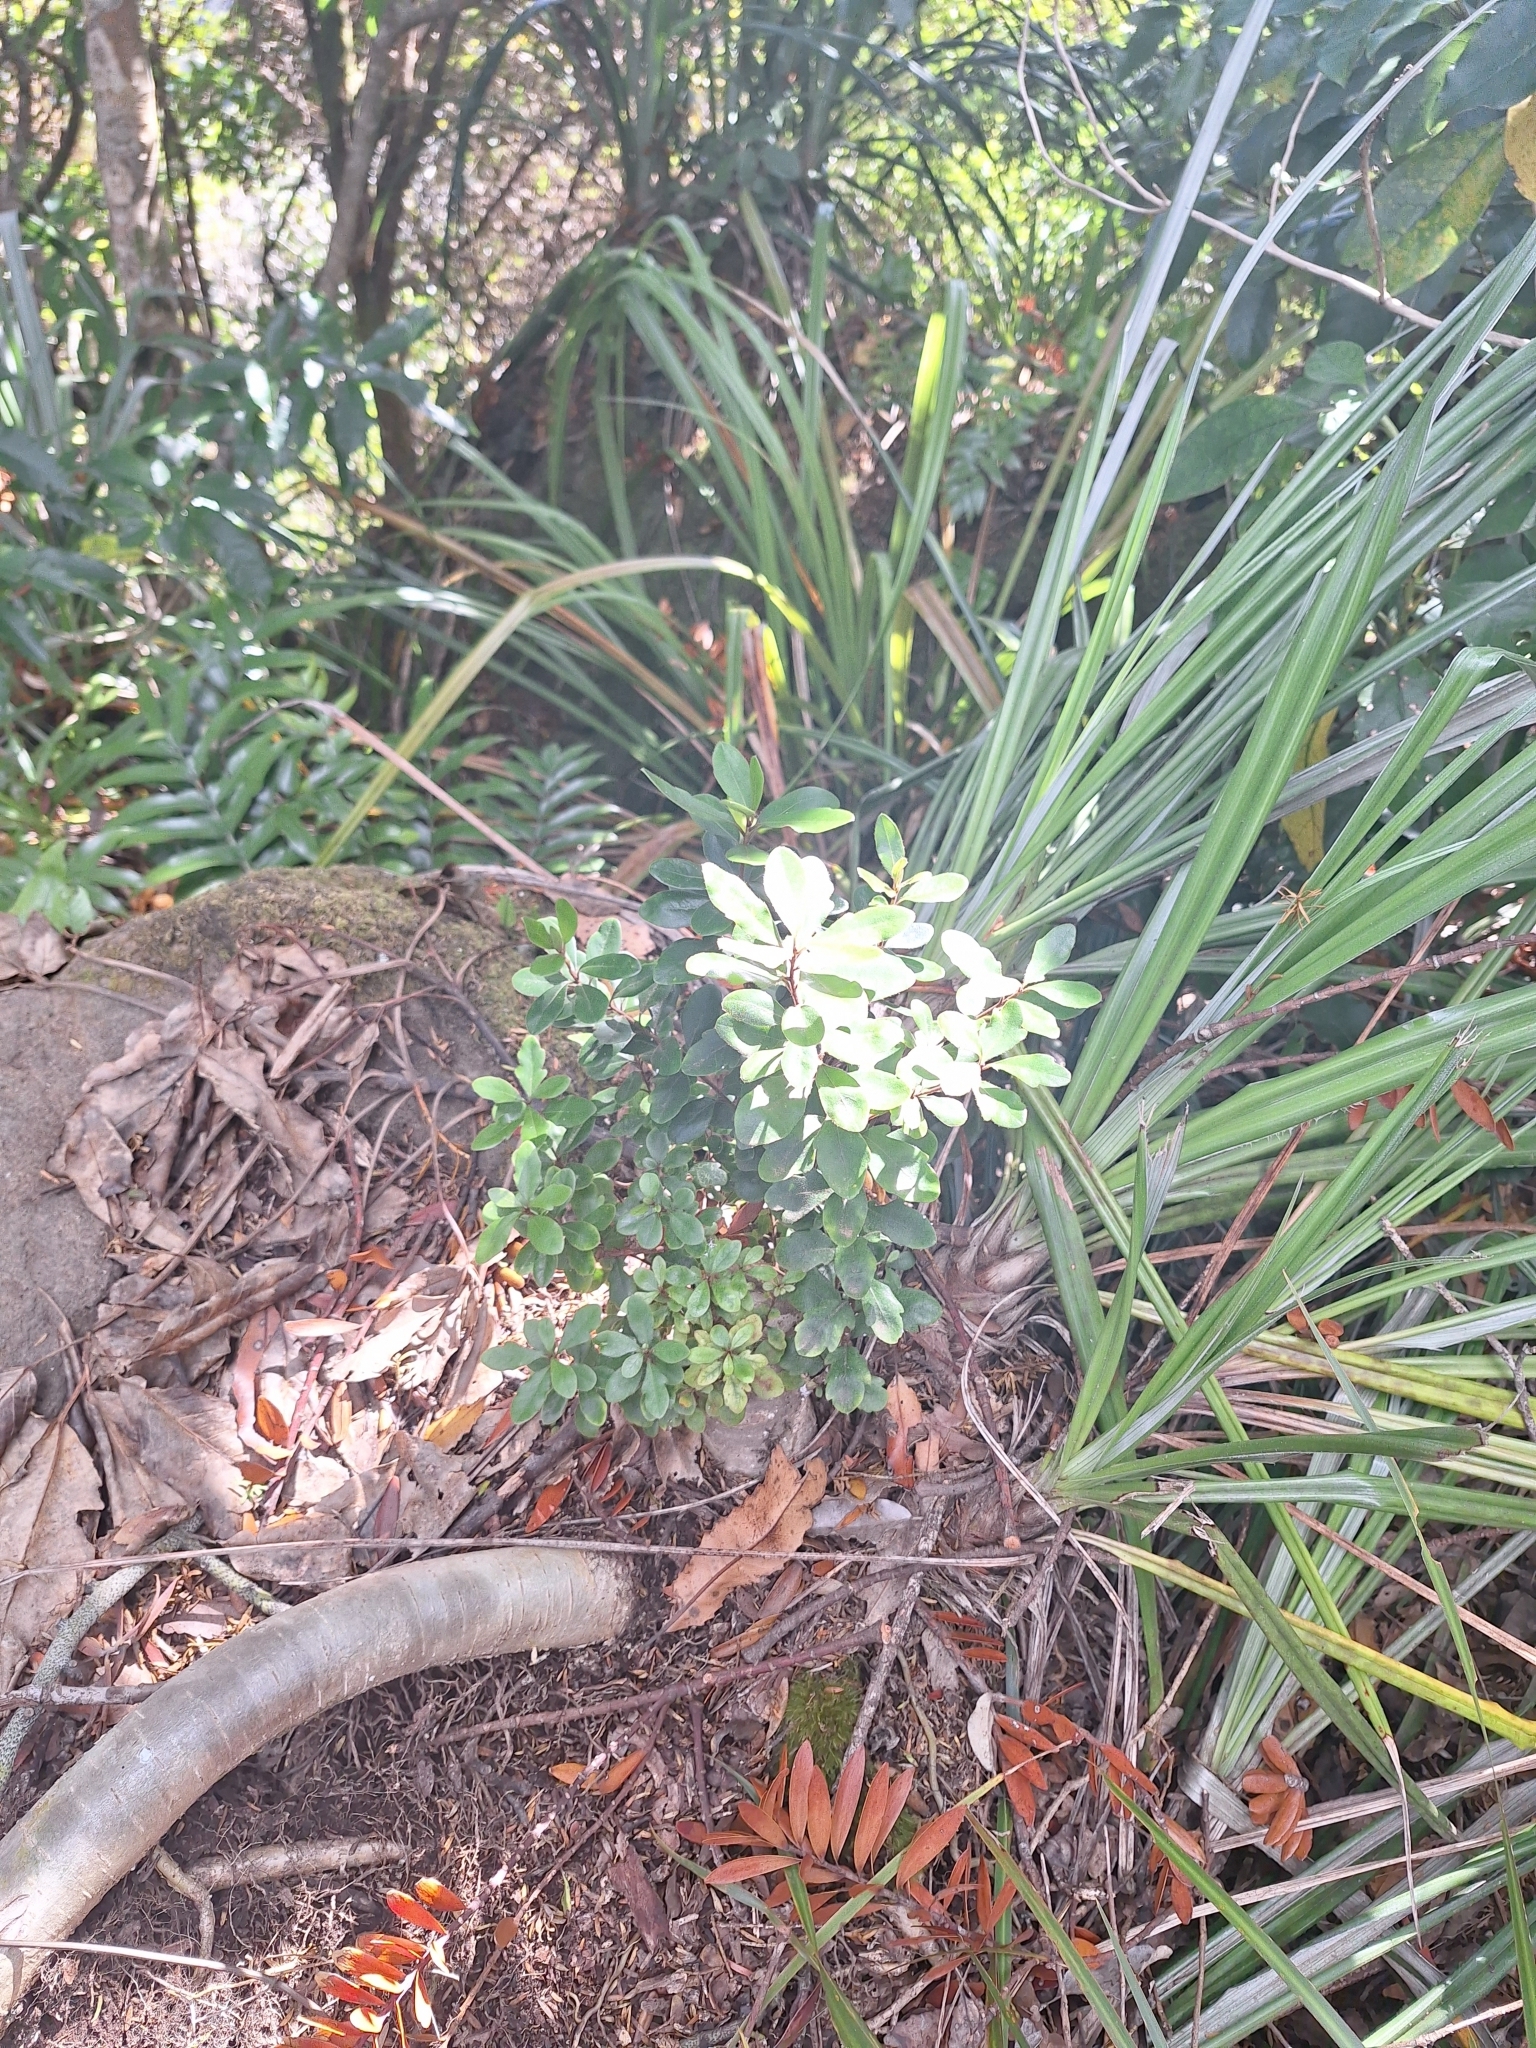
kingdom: Plantae
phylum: Tracheophyta
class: Magnoliopsida
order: Apiales
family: Pittosporaceae
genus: Pittosporum
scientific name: Pittosporum virgatum
